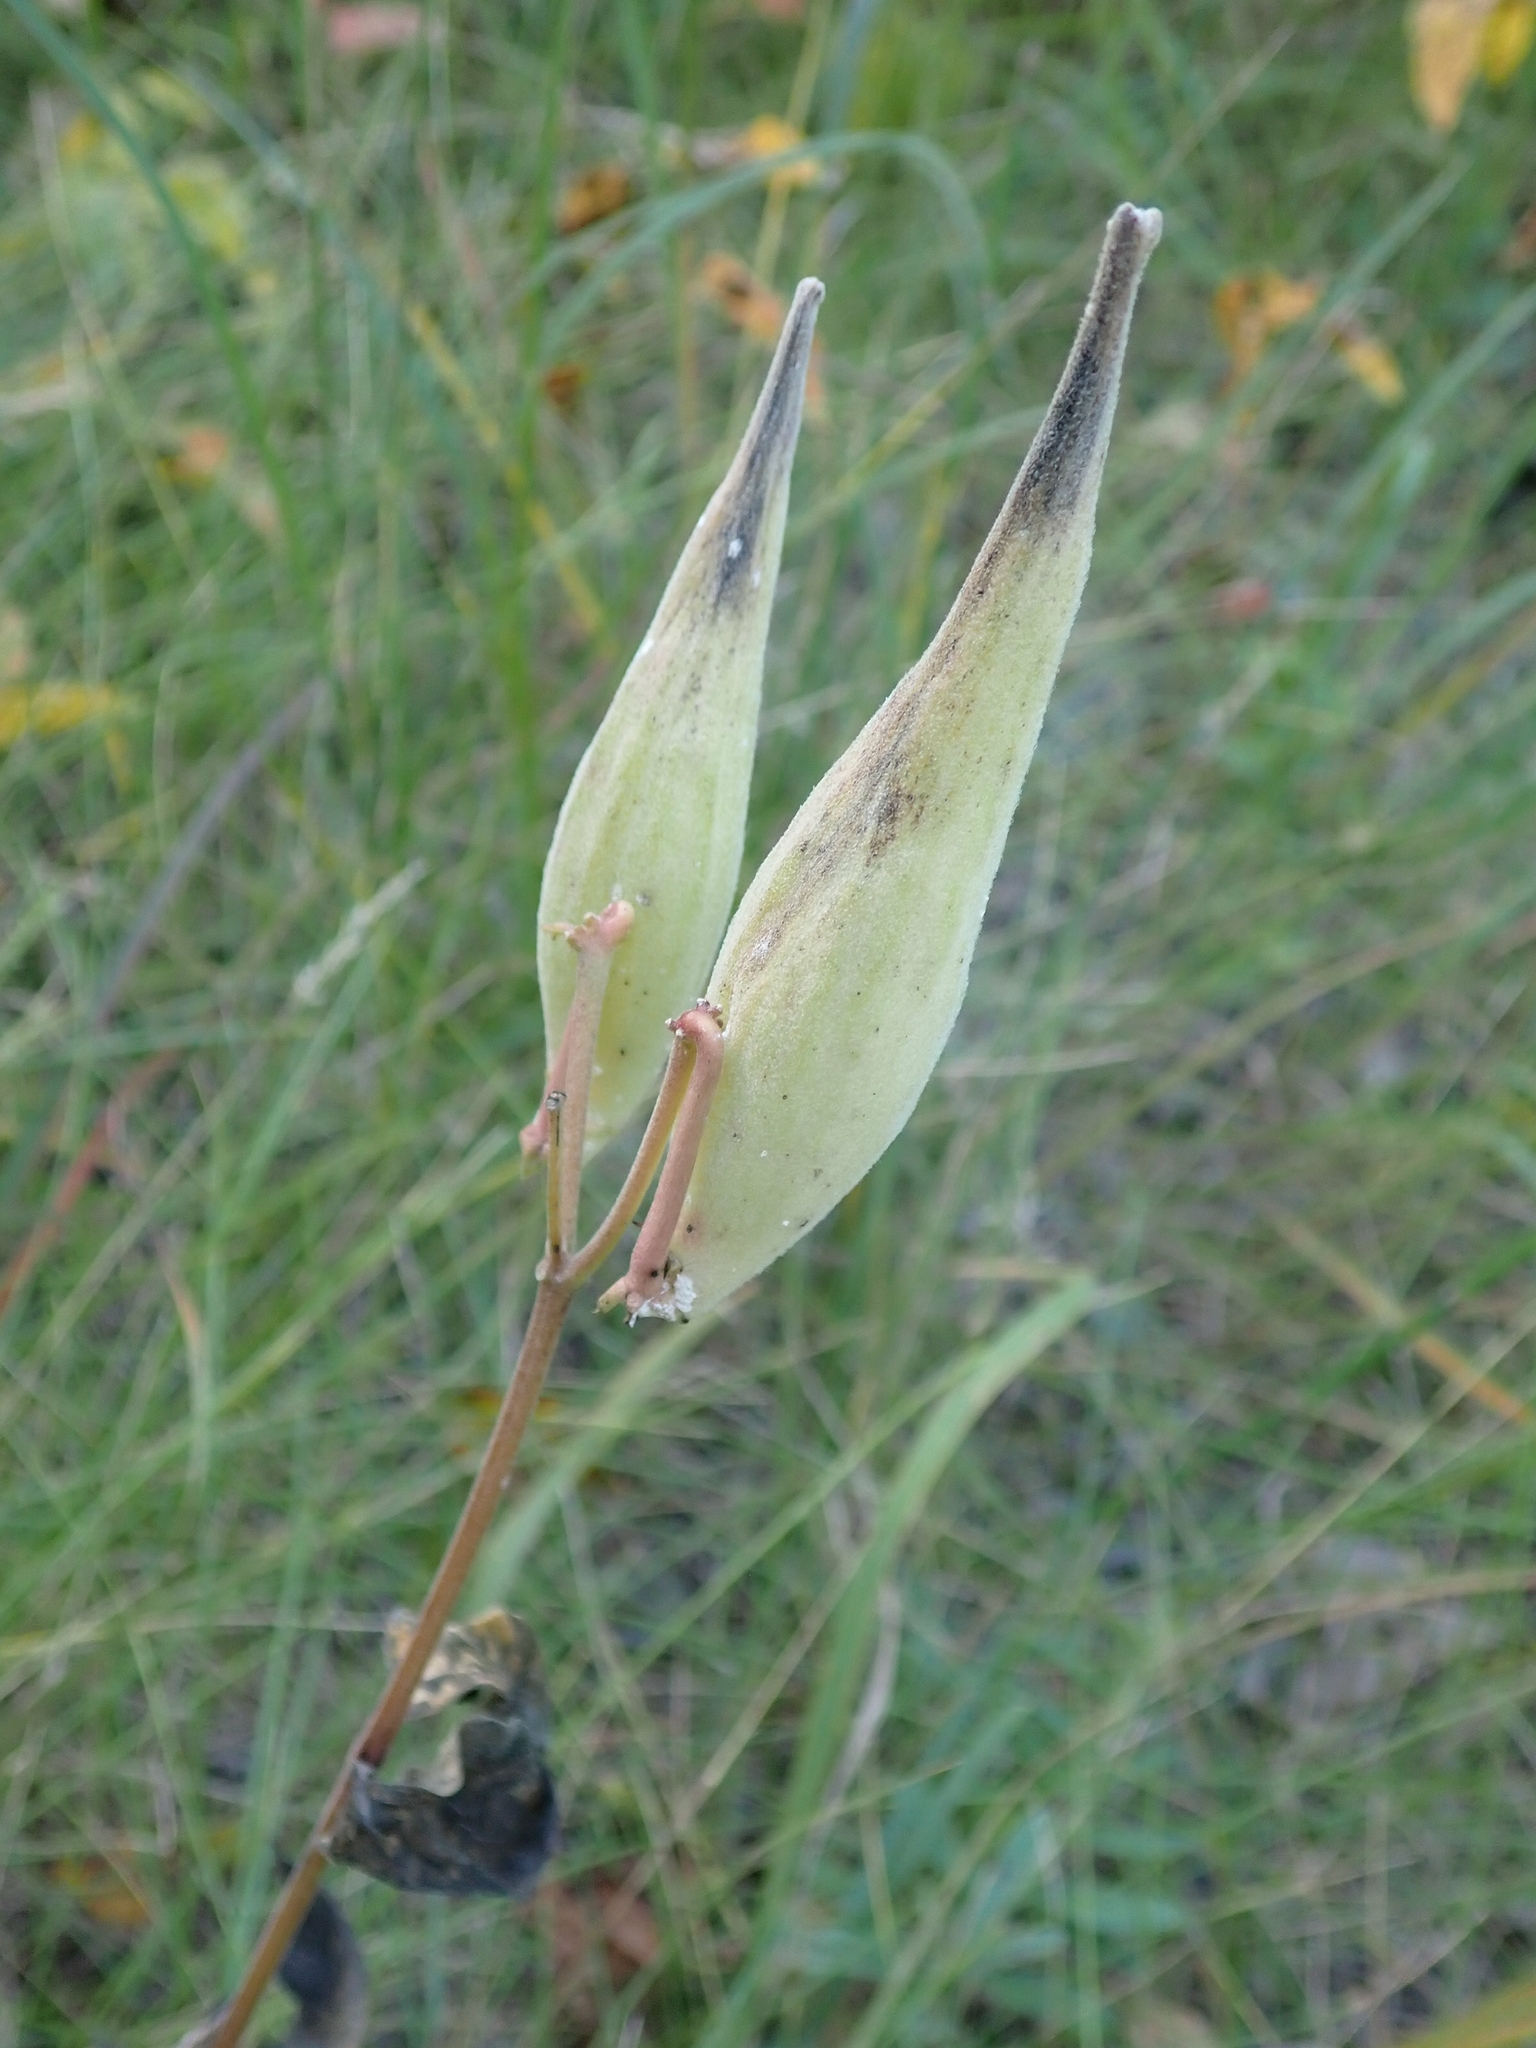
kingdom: Plantae
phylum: Tracheophyta
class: Magnoliopsida
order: Gentianales
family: Apocynaceae
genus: Asclepias
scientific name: Asclepias ovalifolia
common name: Dwarf milkweed
